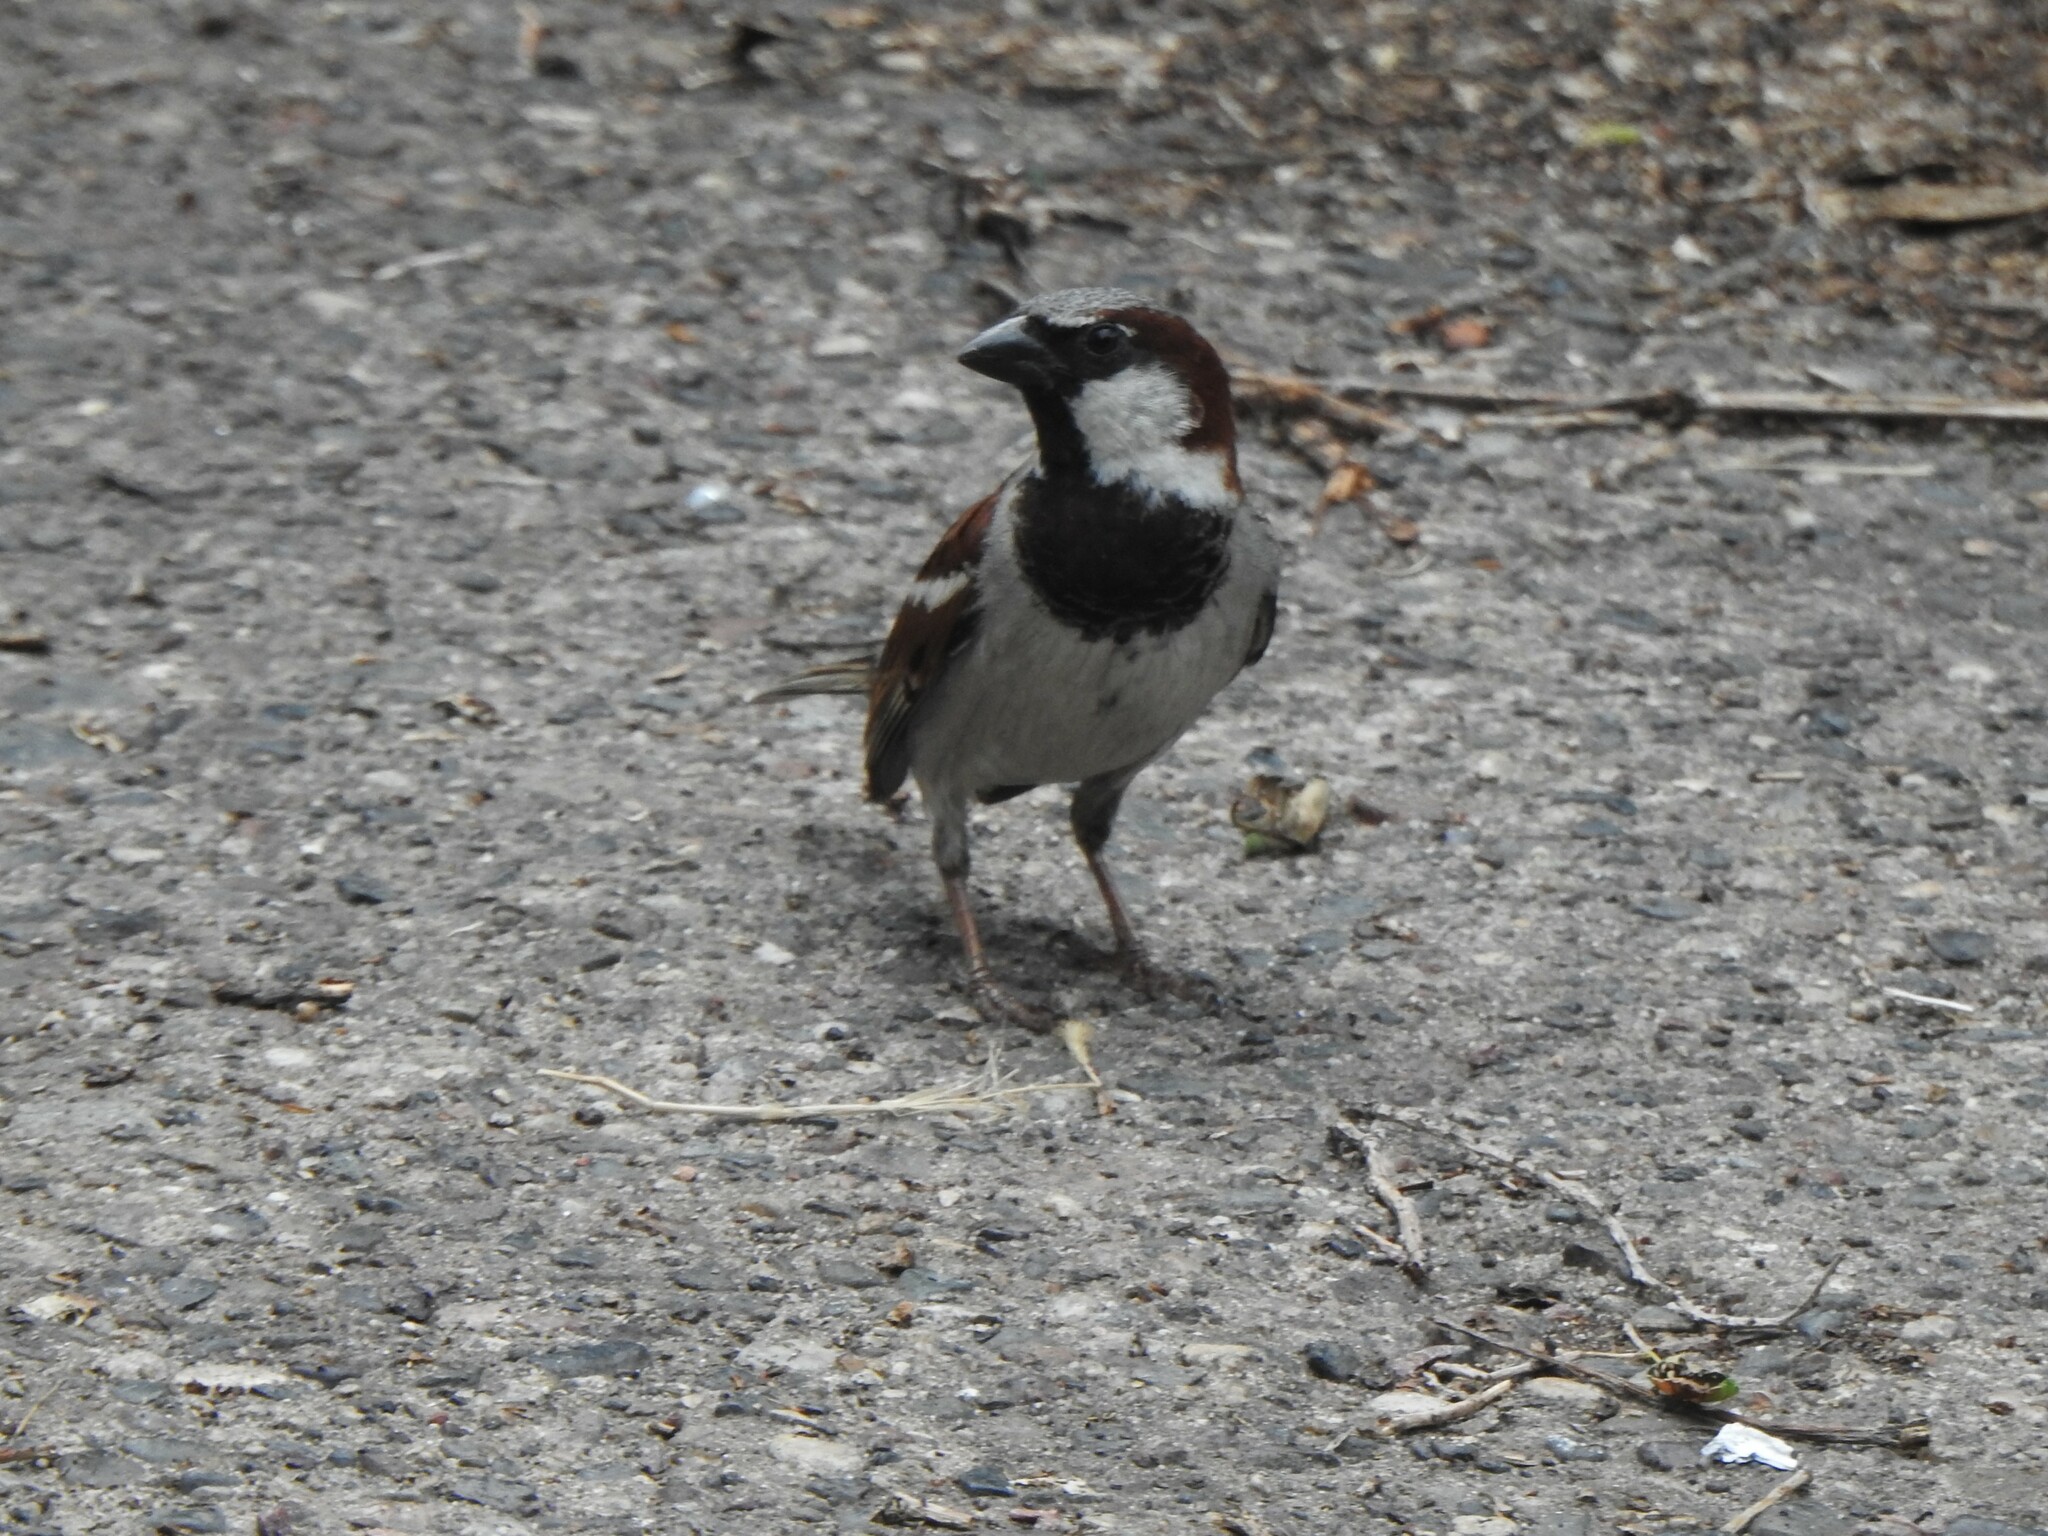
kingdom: Animalia
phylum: Chordata
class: Aves
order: Passeriformes
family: Passeridae
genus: Passer
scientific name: Passer domesticus
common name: House sparrow
